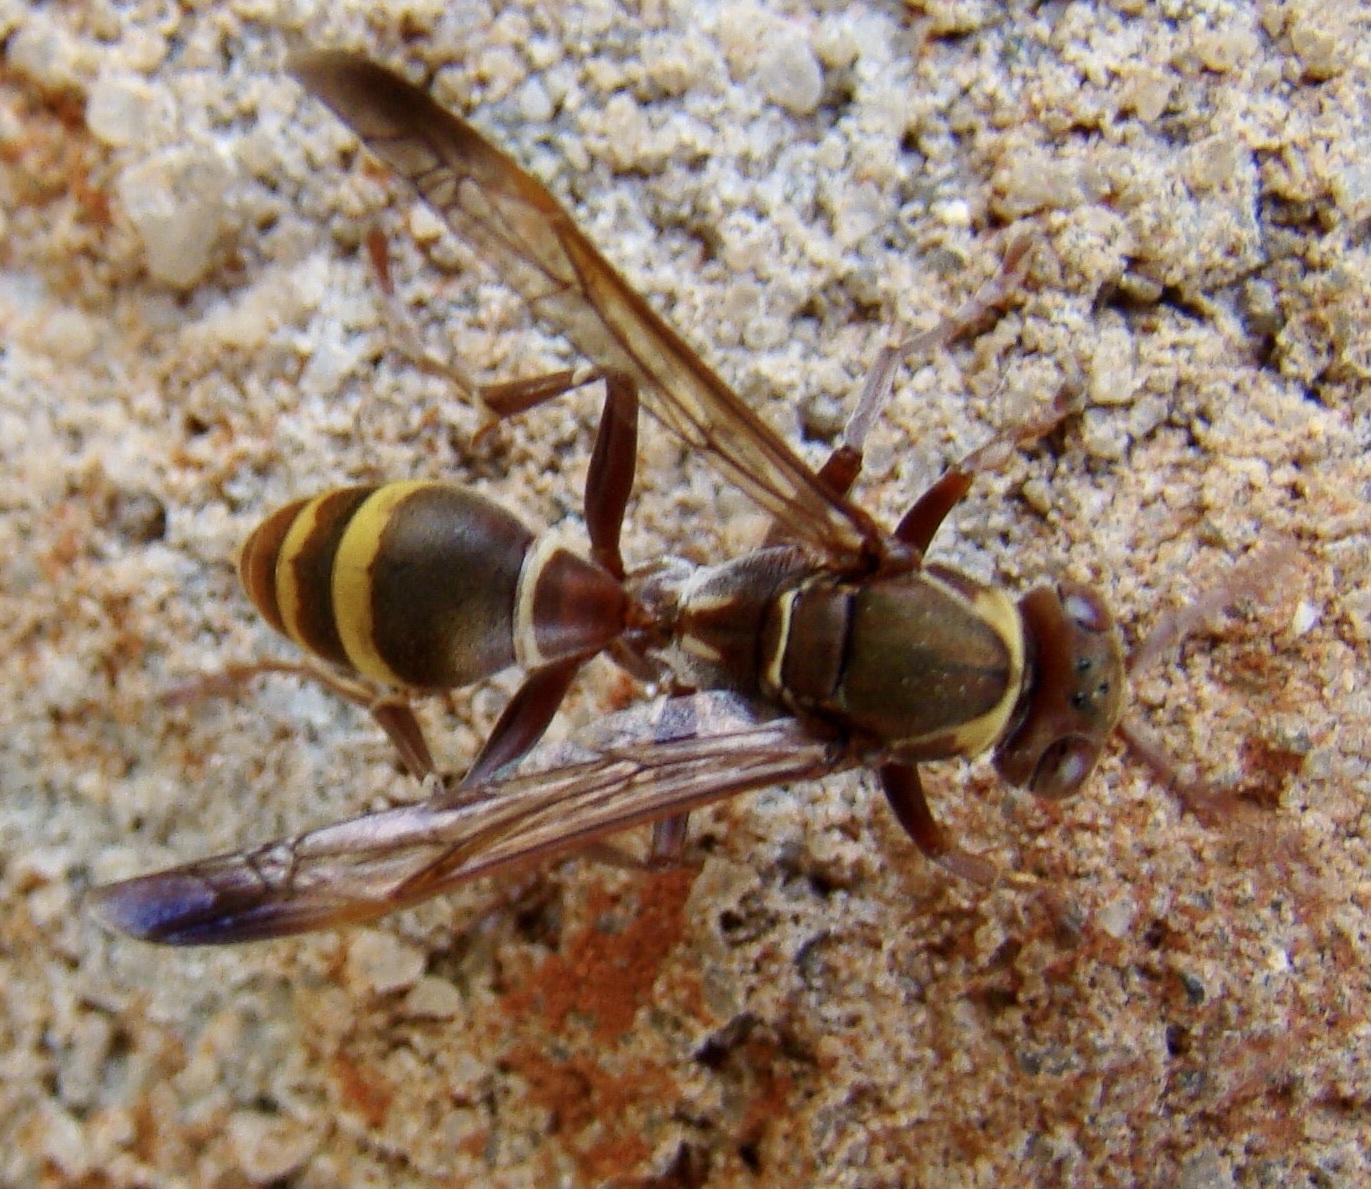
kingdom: Animalia
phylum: Arthropoda
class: Insecta
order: Hymenoptera
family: Eumenidae
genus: Polistes
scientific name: Polistes badius
